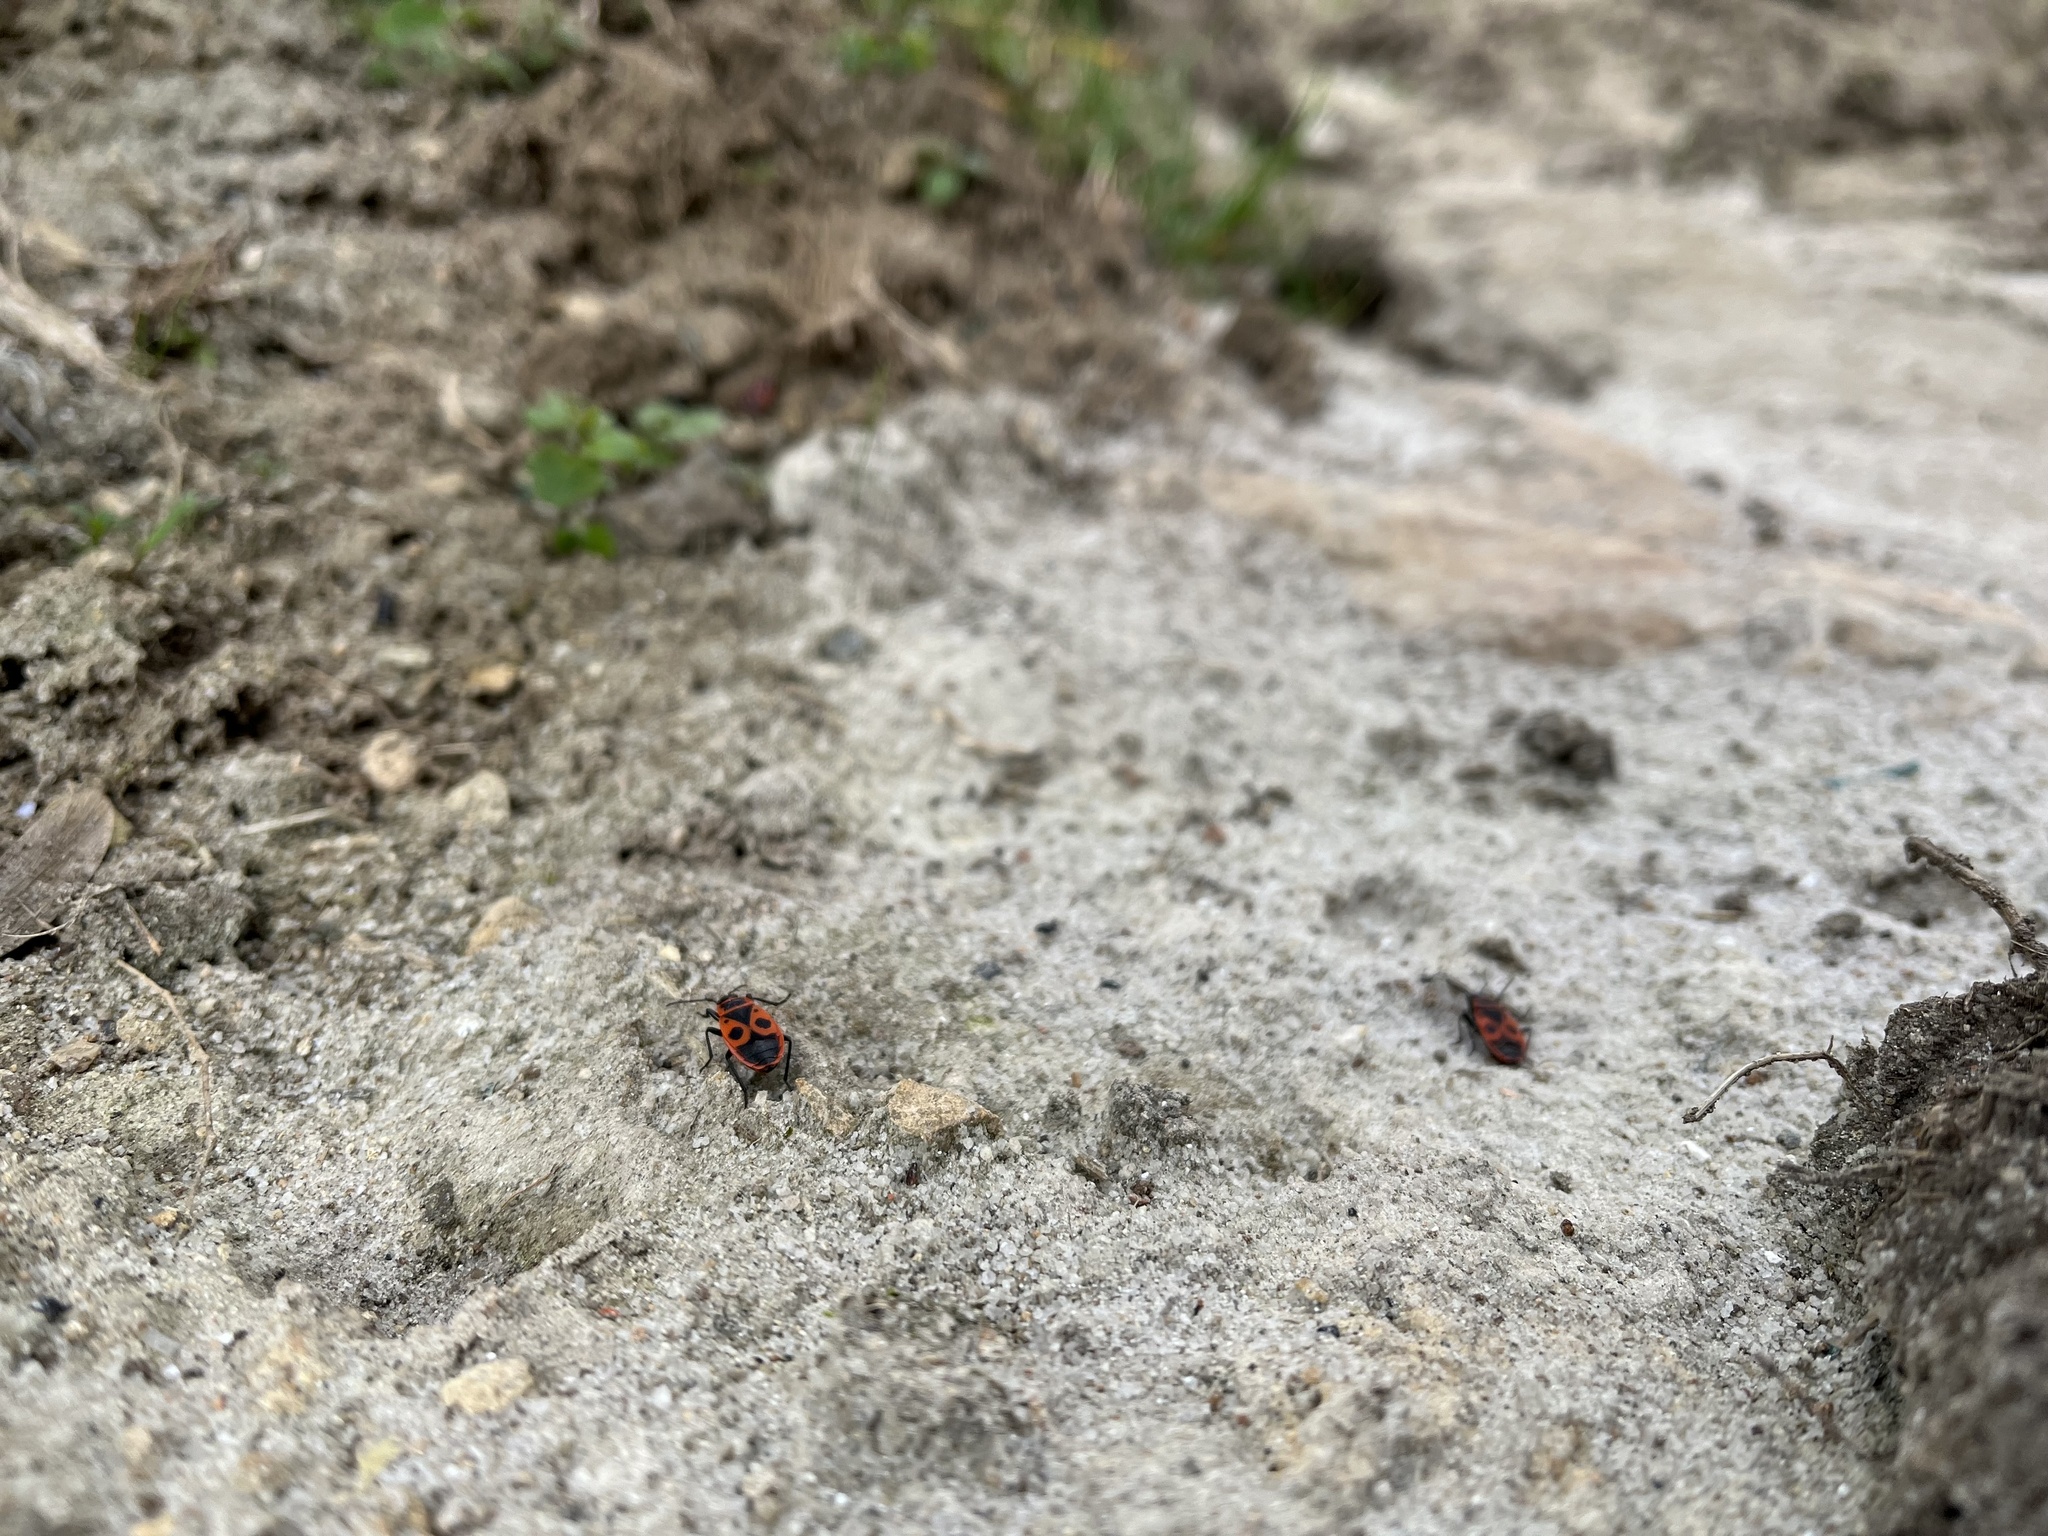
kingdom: Animalia
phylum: Arthropoda
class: Insecta
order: Hemiptera
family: Pyrrhocoridae
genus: Pyrrhocoris
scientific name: Pyrrhocoris apterus
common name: Firebug
